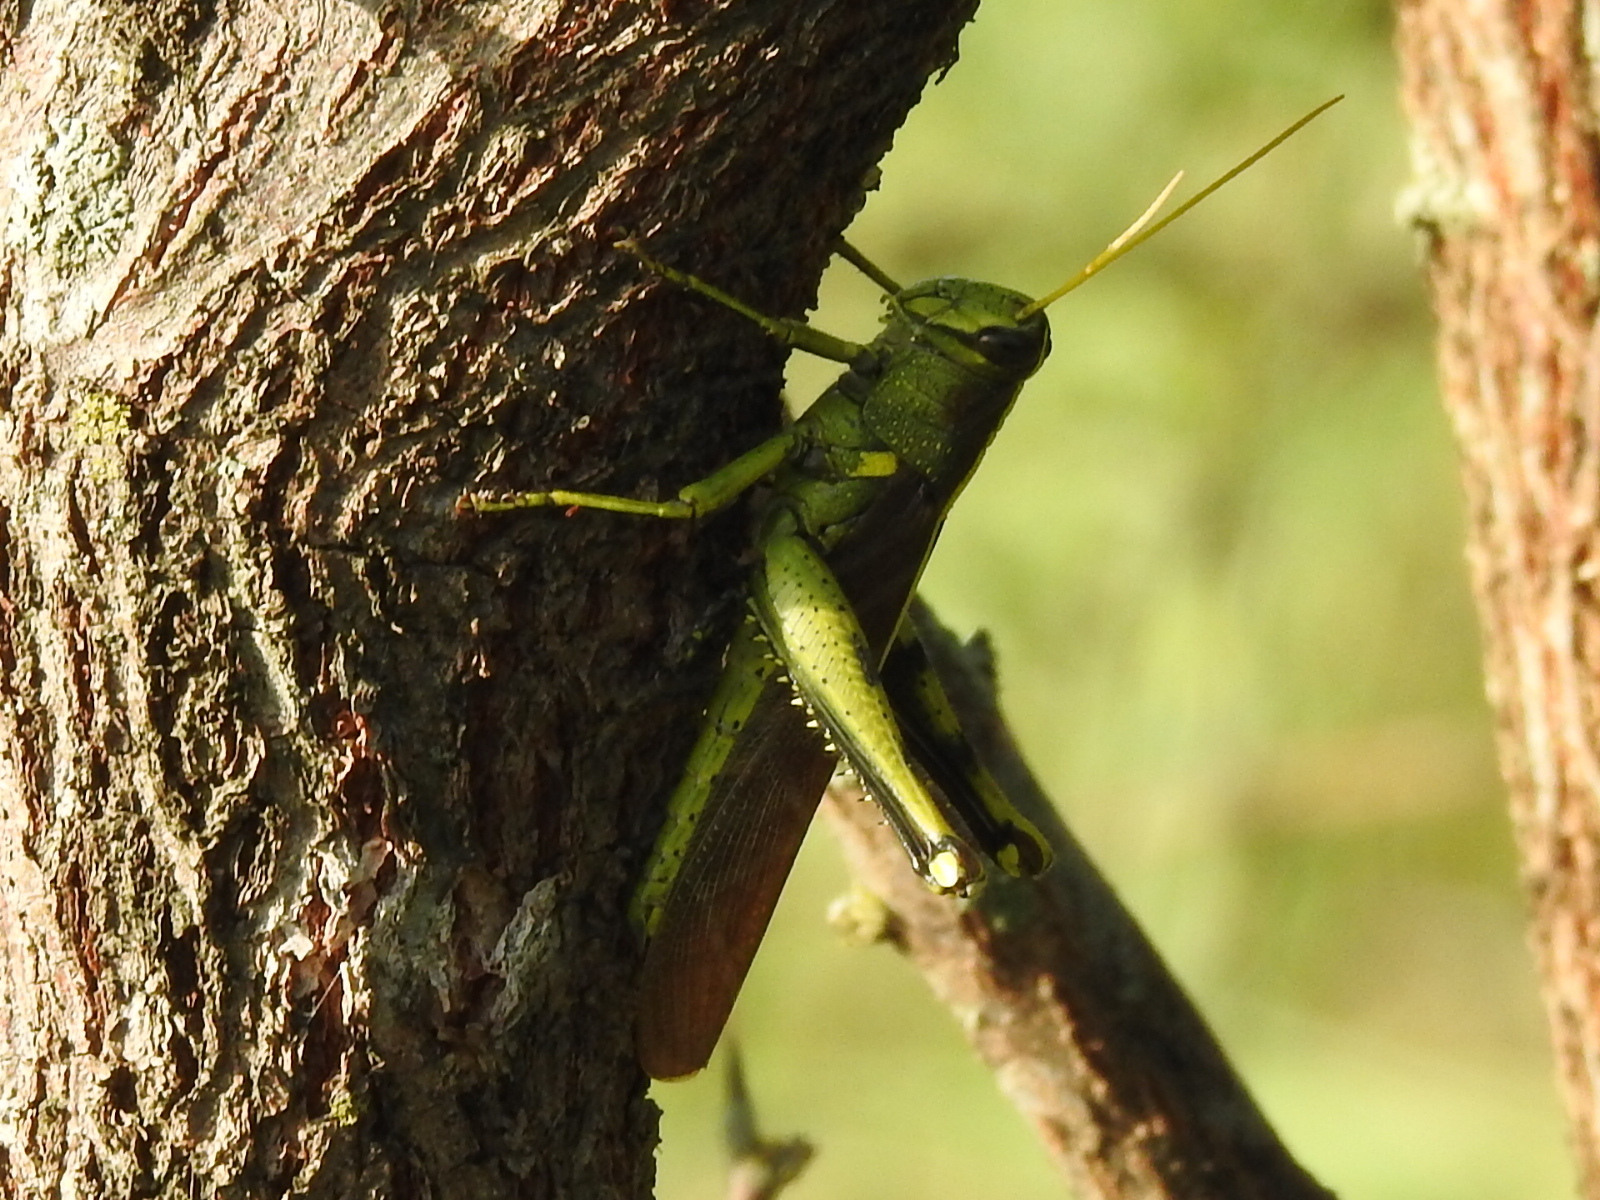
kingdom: Animalia
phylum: Arthropoda
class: Insecta
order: Orthoptera
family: Acrididae
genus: Schistocerca
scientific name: Schistocerca obscura
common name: Obscure bird grasshopper
